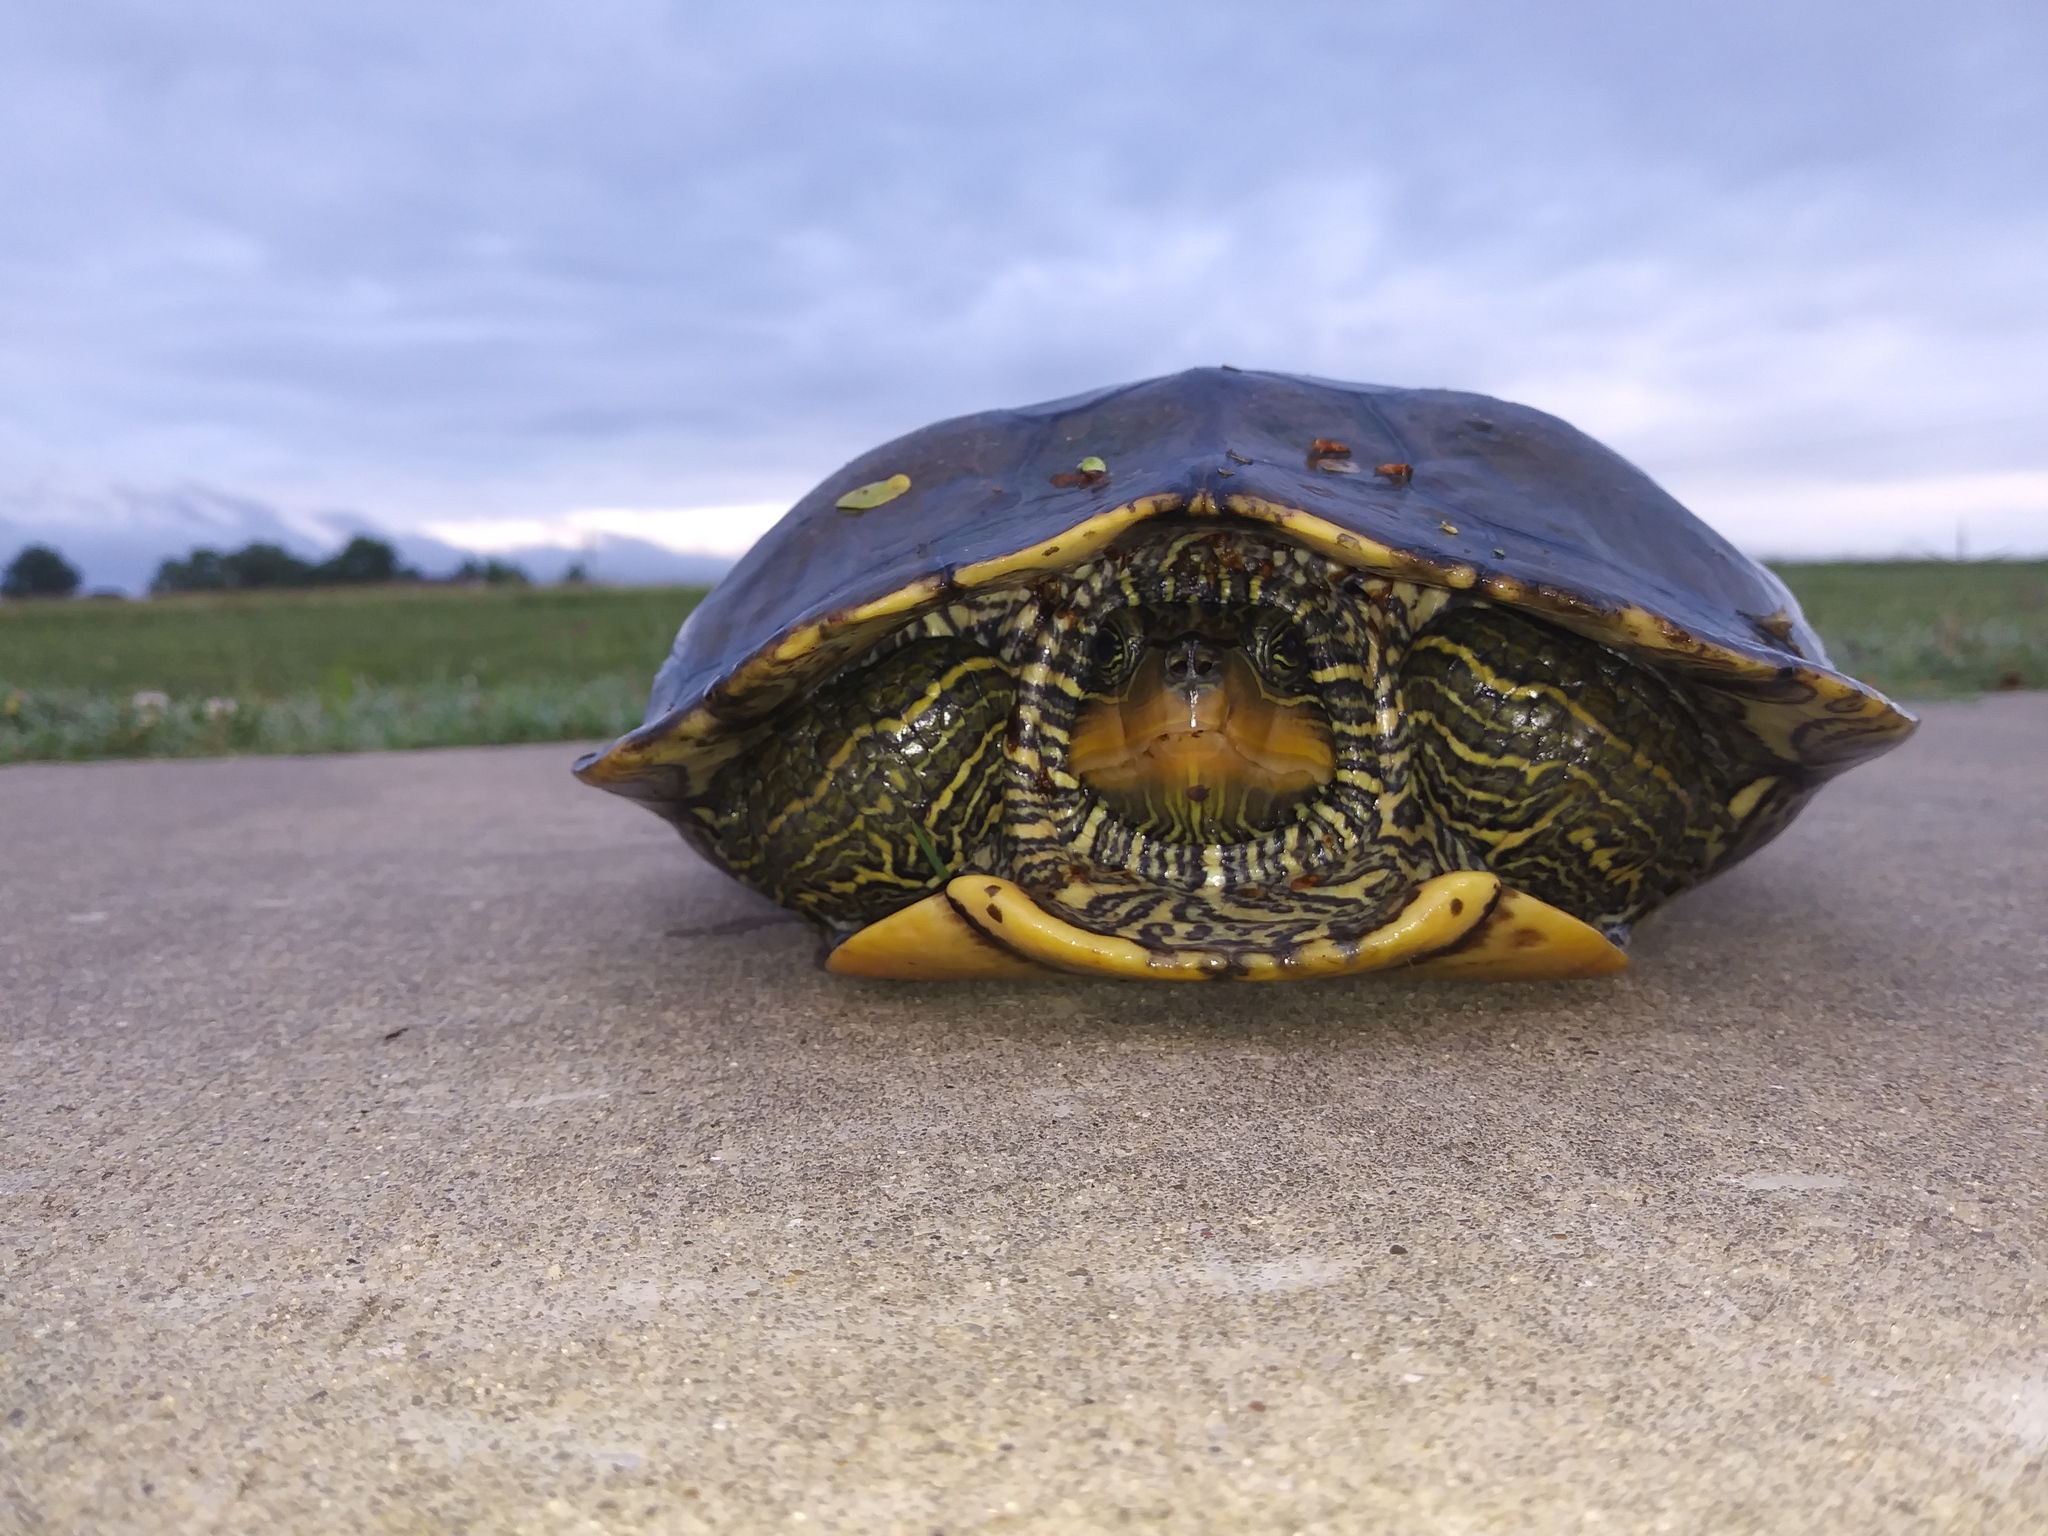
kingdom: Animalia
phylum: Chordata
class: Testudines
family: Emydidae
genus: Graptemys
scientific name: Graptemys geographica
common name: Common map turtle
